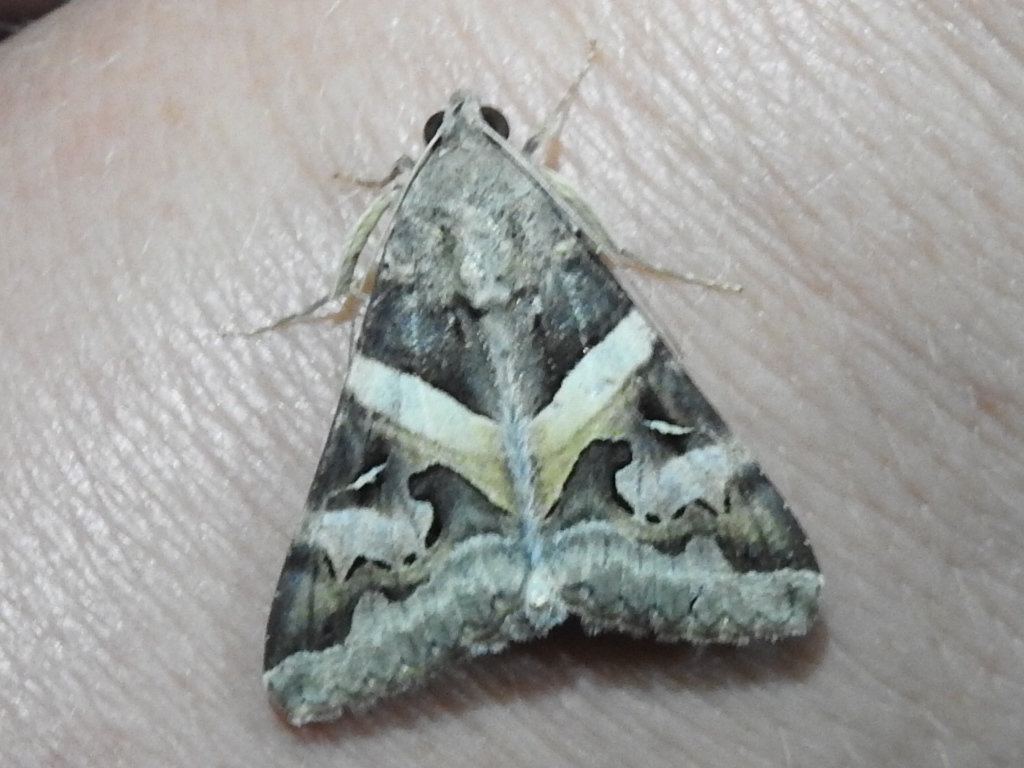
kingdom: Animalia
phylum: Arthropoda
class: Insecta
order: Lepidoptera
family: Erebidae
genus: Melipotis
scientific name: Melipotis indomita
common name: Moth
